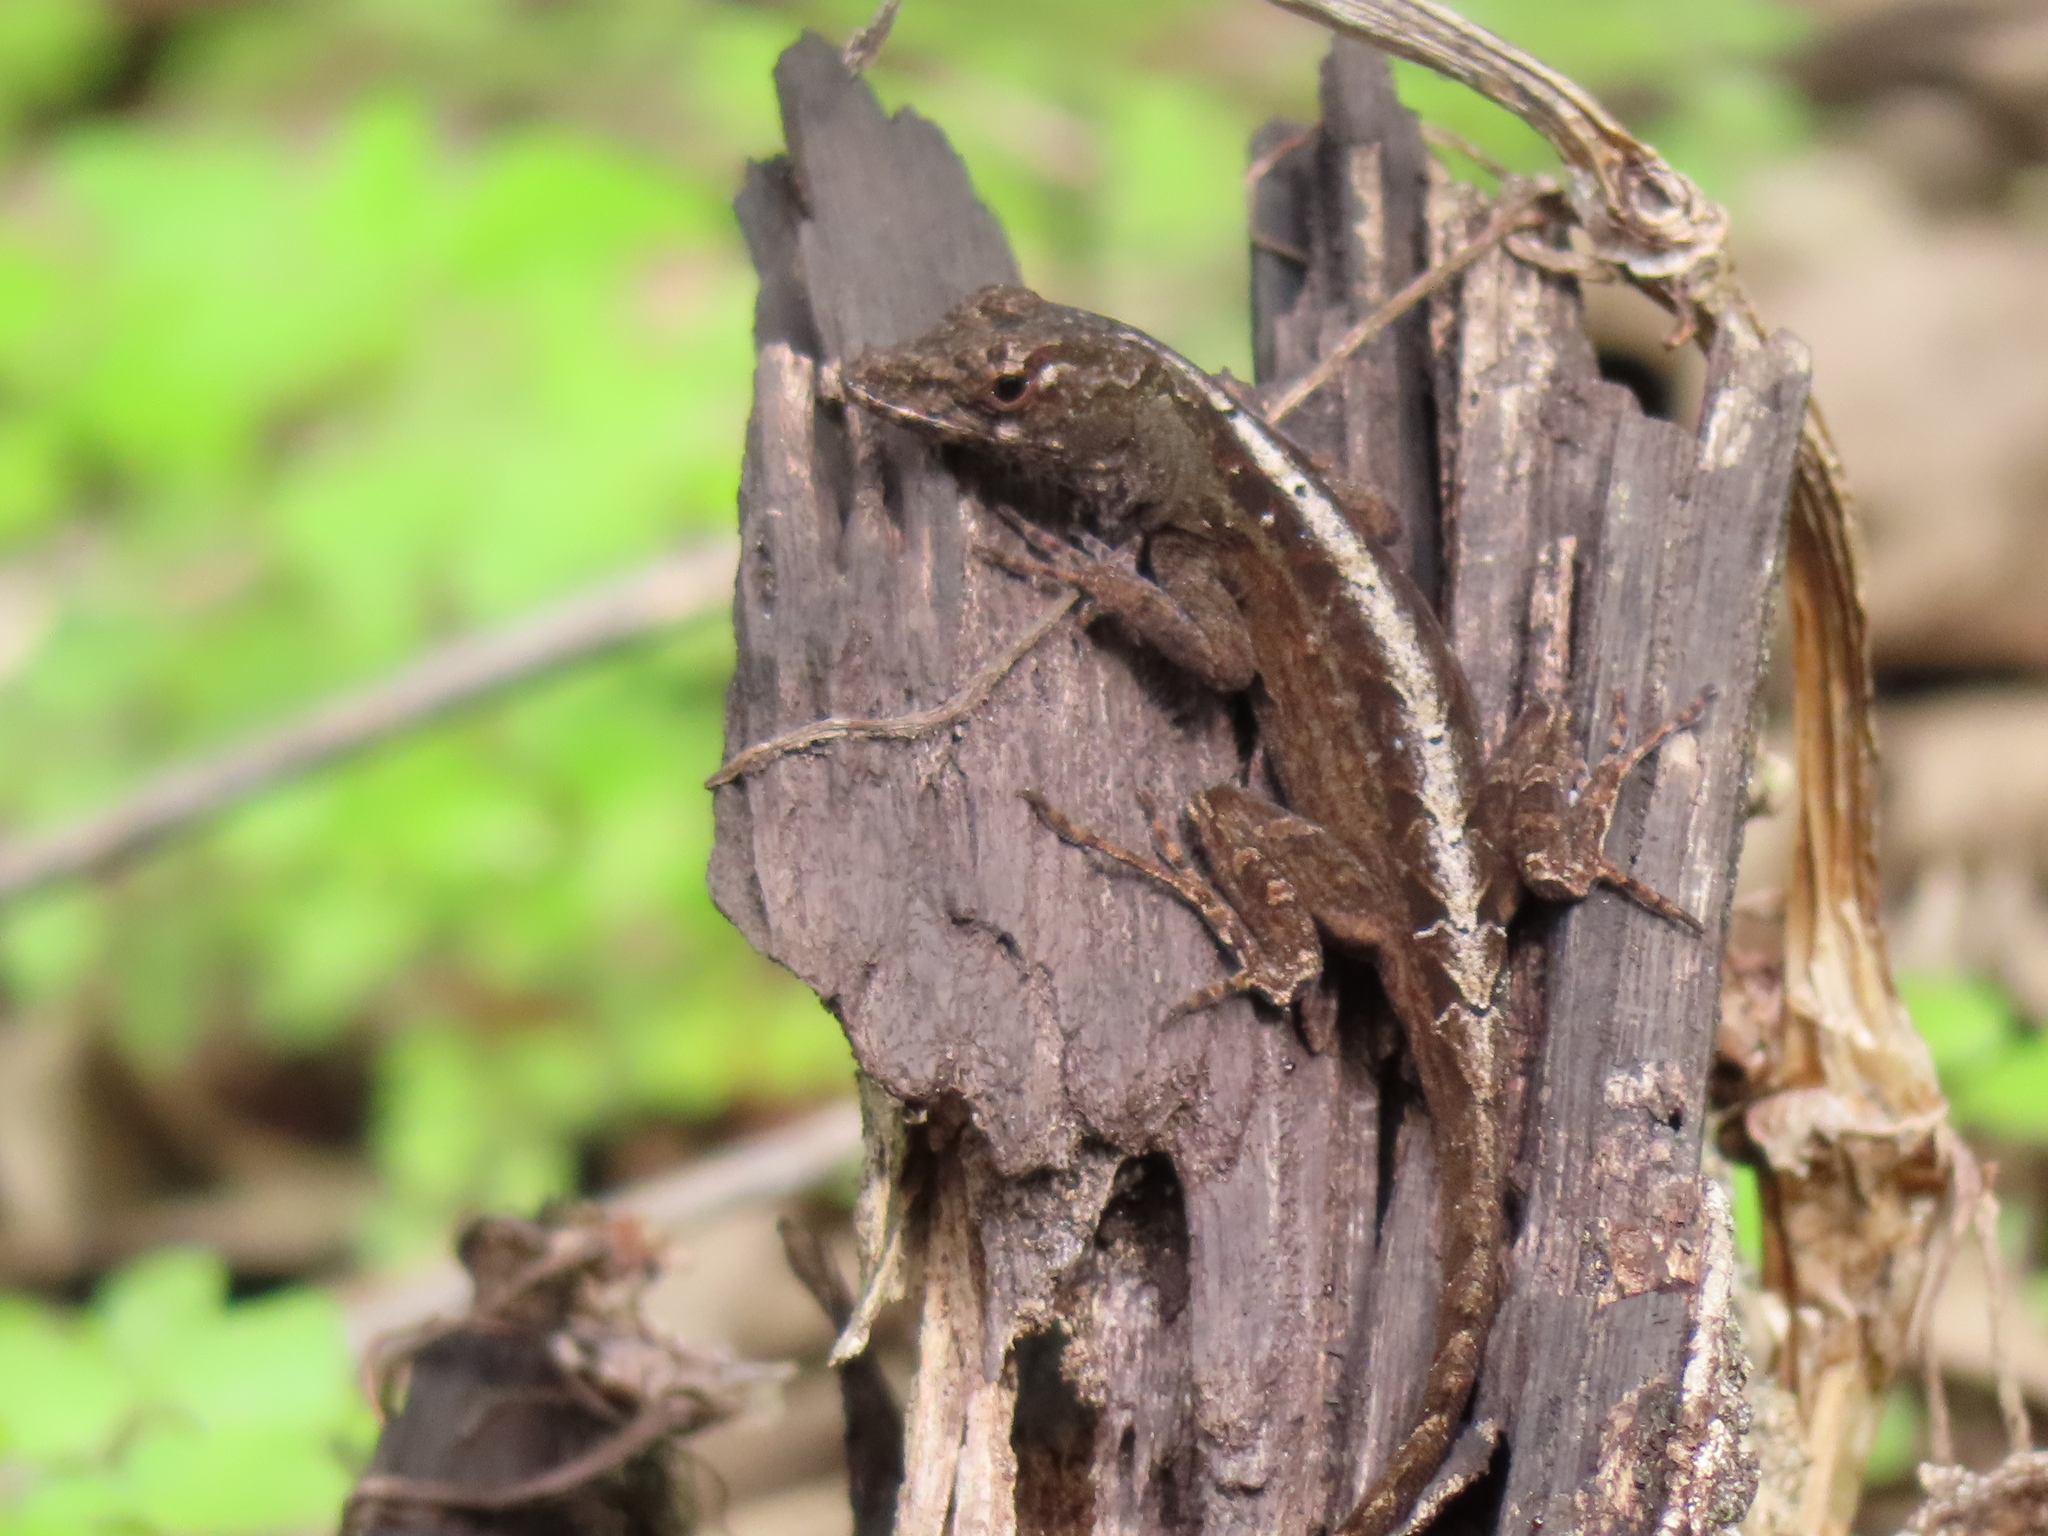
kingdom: Animalia
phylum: Chordata
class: Squamata
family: Dactyloidae
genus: Anolis
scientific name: Anolis sagrei
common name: Brown anole
